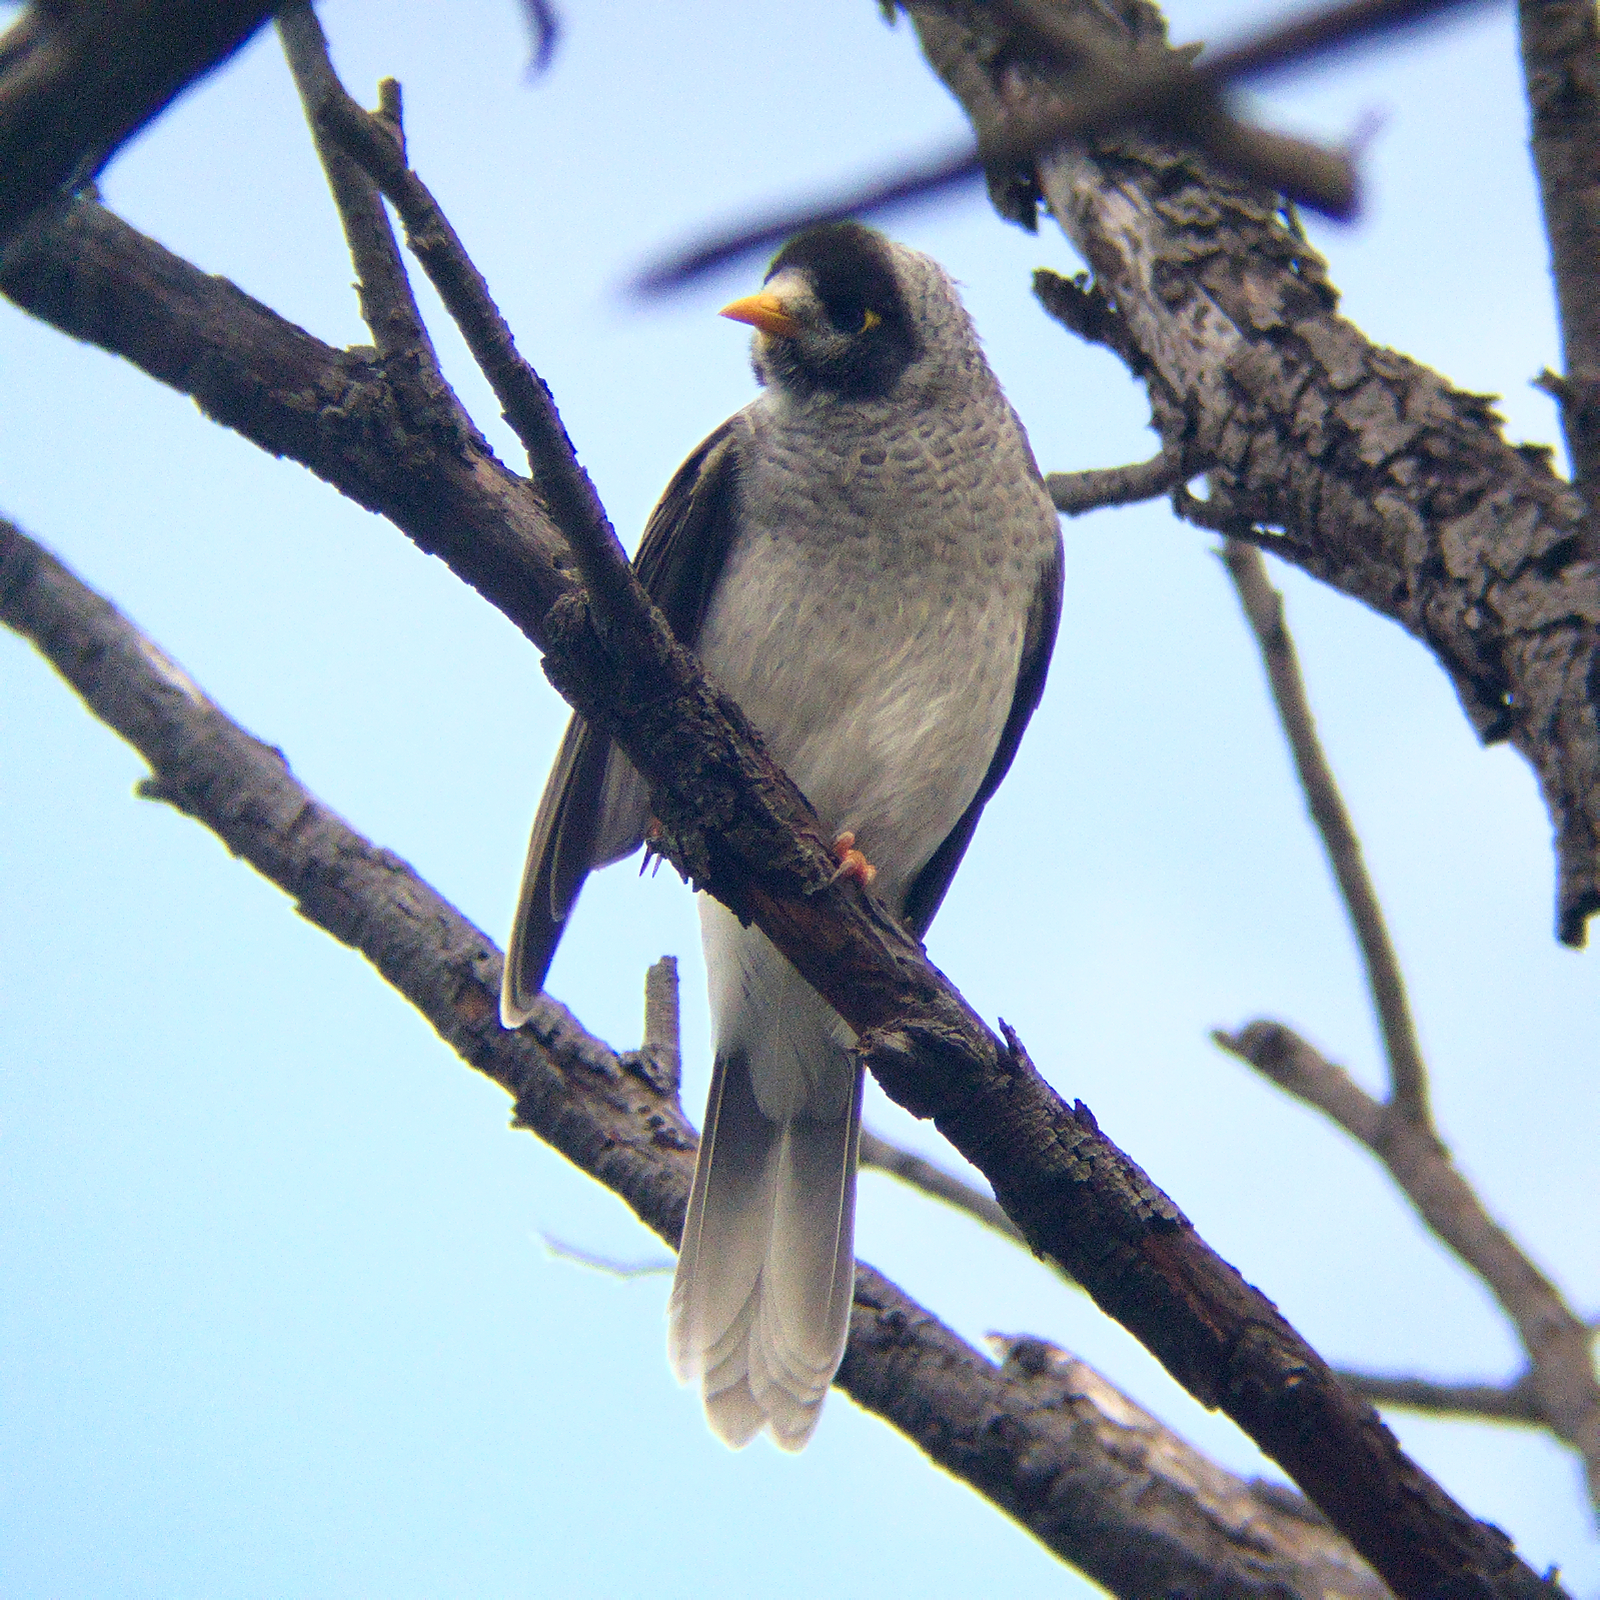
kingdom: Animalia
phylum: Chordata
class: Aves
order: Passeriformes
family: Meliphagidae
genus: Manorina
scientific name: Manorina melanocephala
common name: Noisy miner
